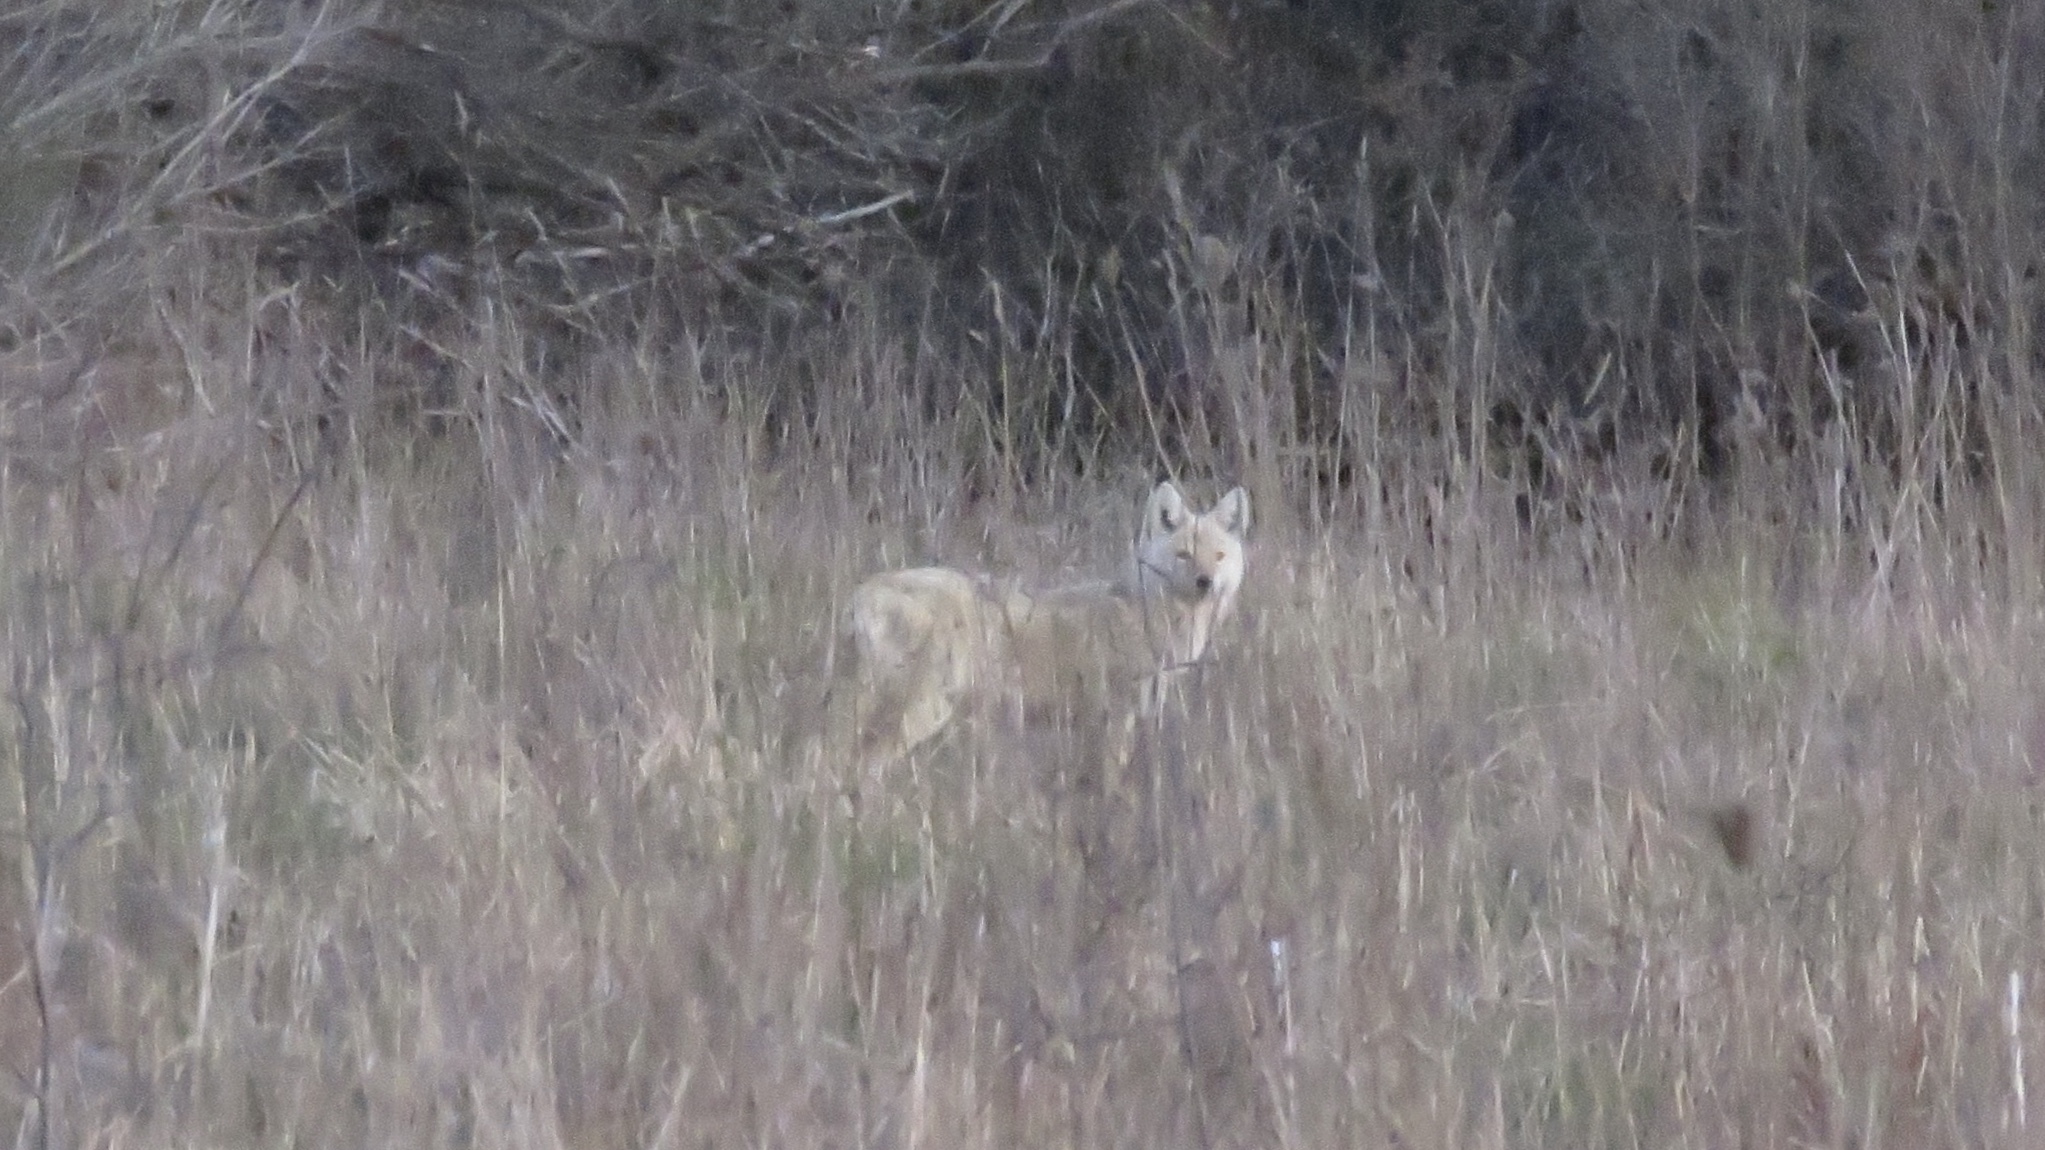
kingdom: Animalia
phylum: Chordata
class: Mammalia
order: Carnivora
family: Canidae
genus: Canis
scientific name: Canis latrans
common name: Coyote
